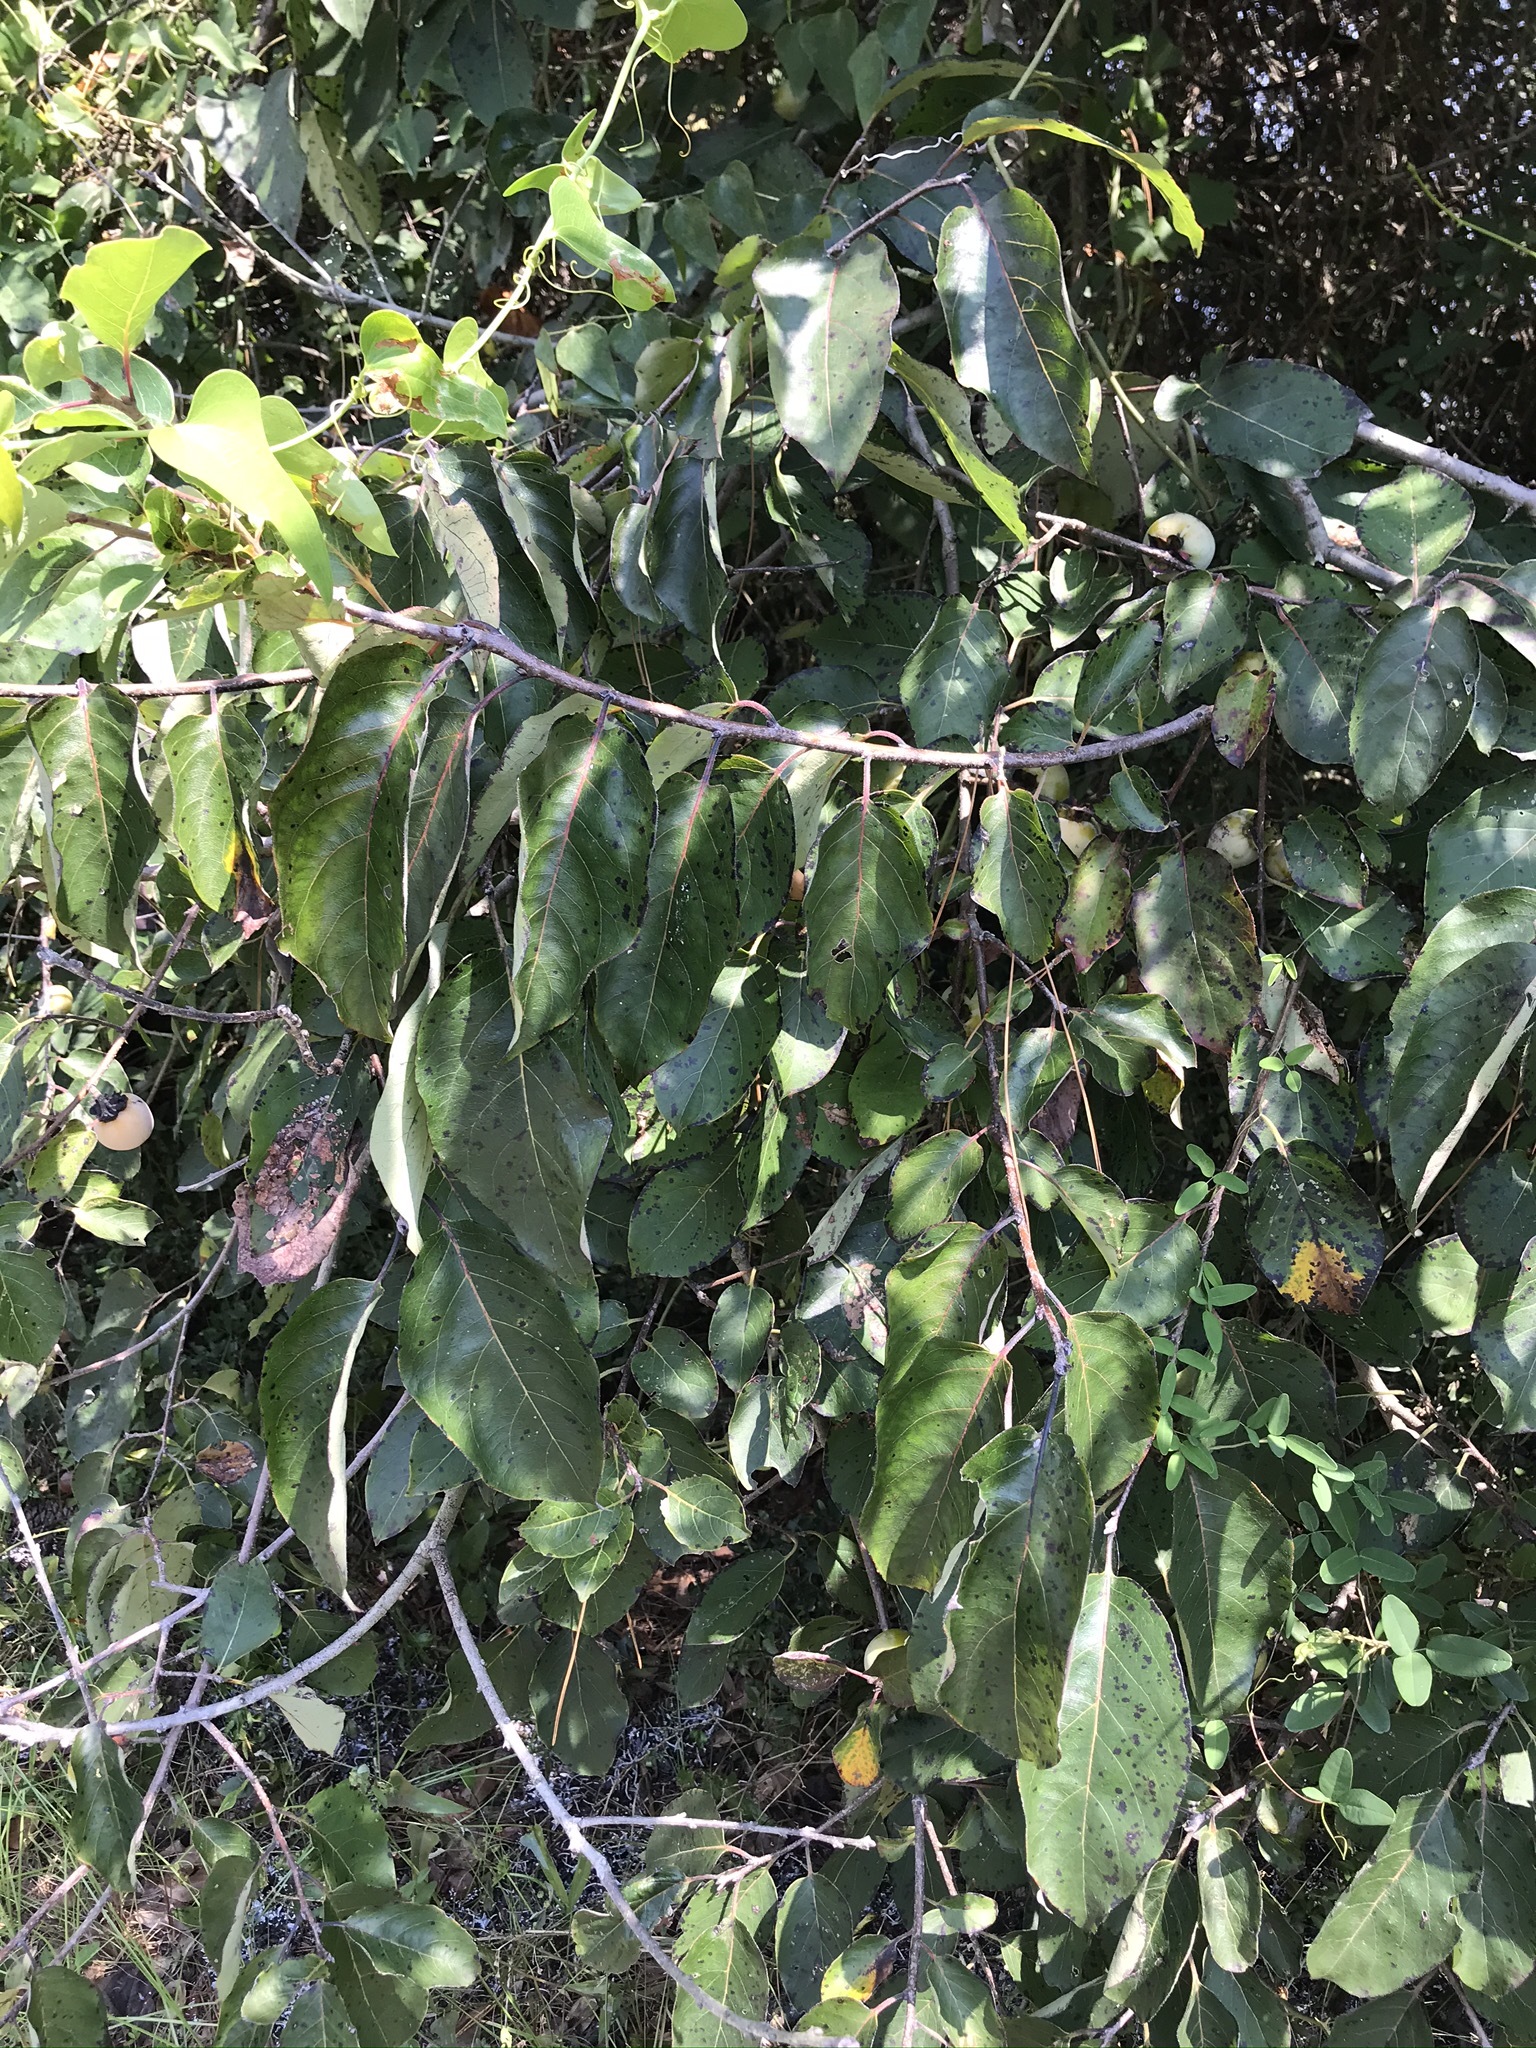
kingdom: Plantae
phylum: Tracheophyta
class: Magnoliopsida
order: Ericales
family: Ebenaceae
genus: Diospyros
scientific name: Diospyros virginiana
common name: Persimmon
